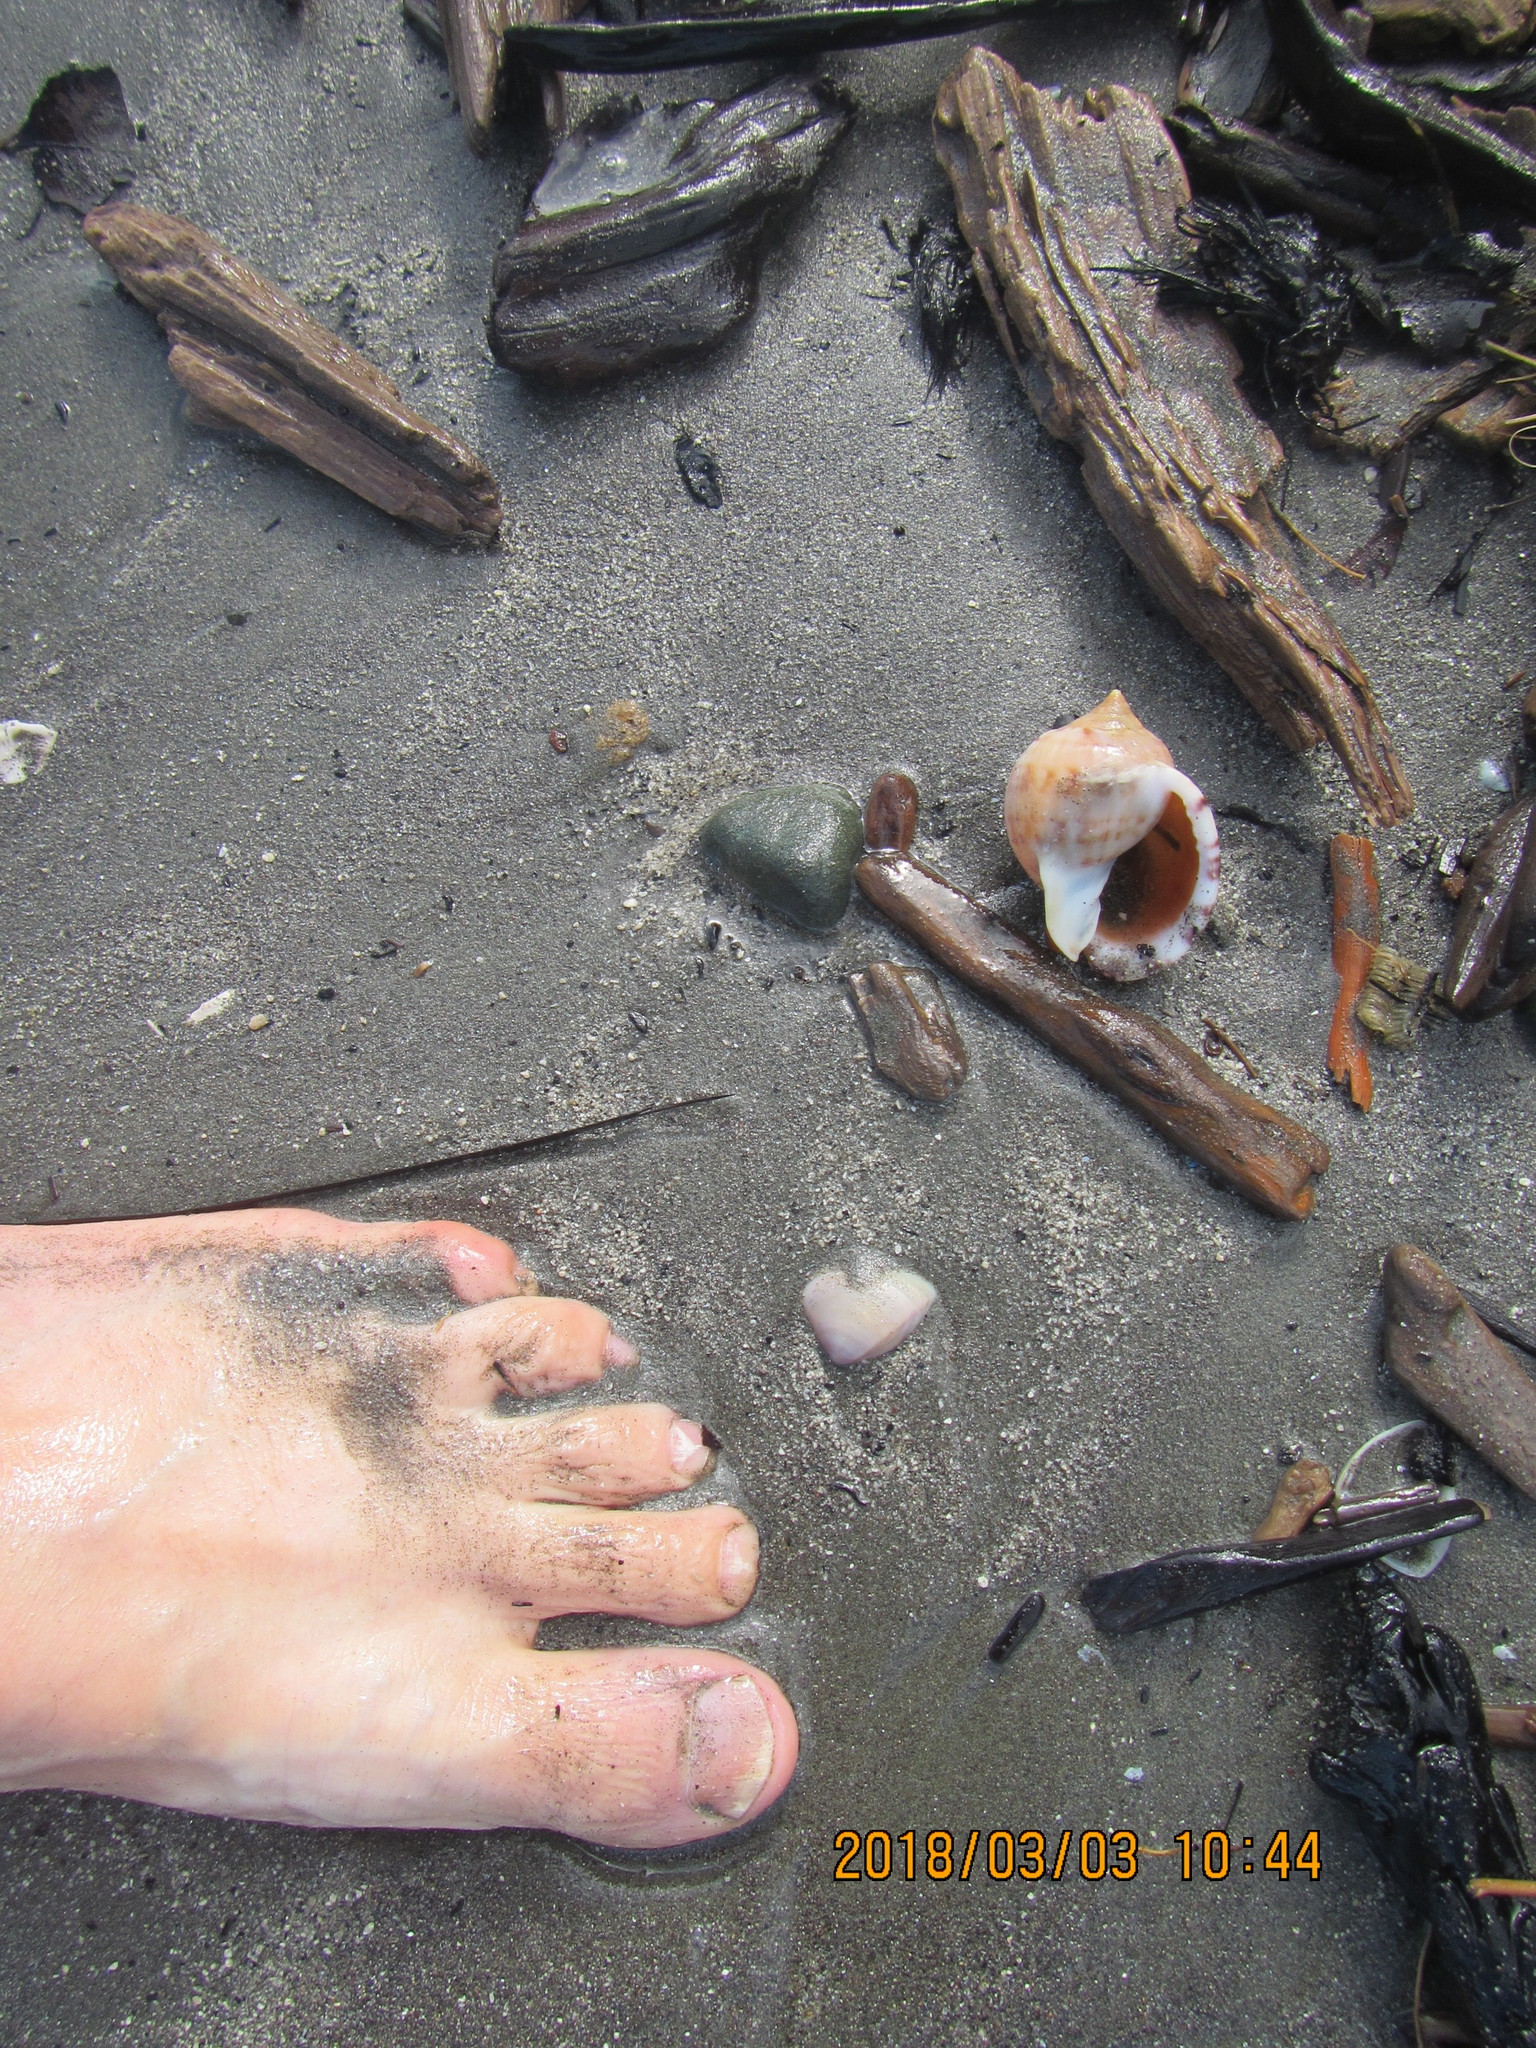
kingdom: Animalia
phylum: Mollusca
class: Gastropoda
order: Littorinimorpha
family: Cassidae
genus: Semicassis
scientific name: Semicassis pyrum
